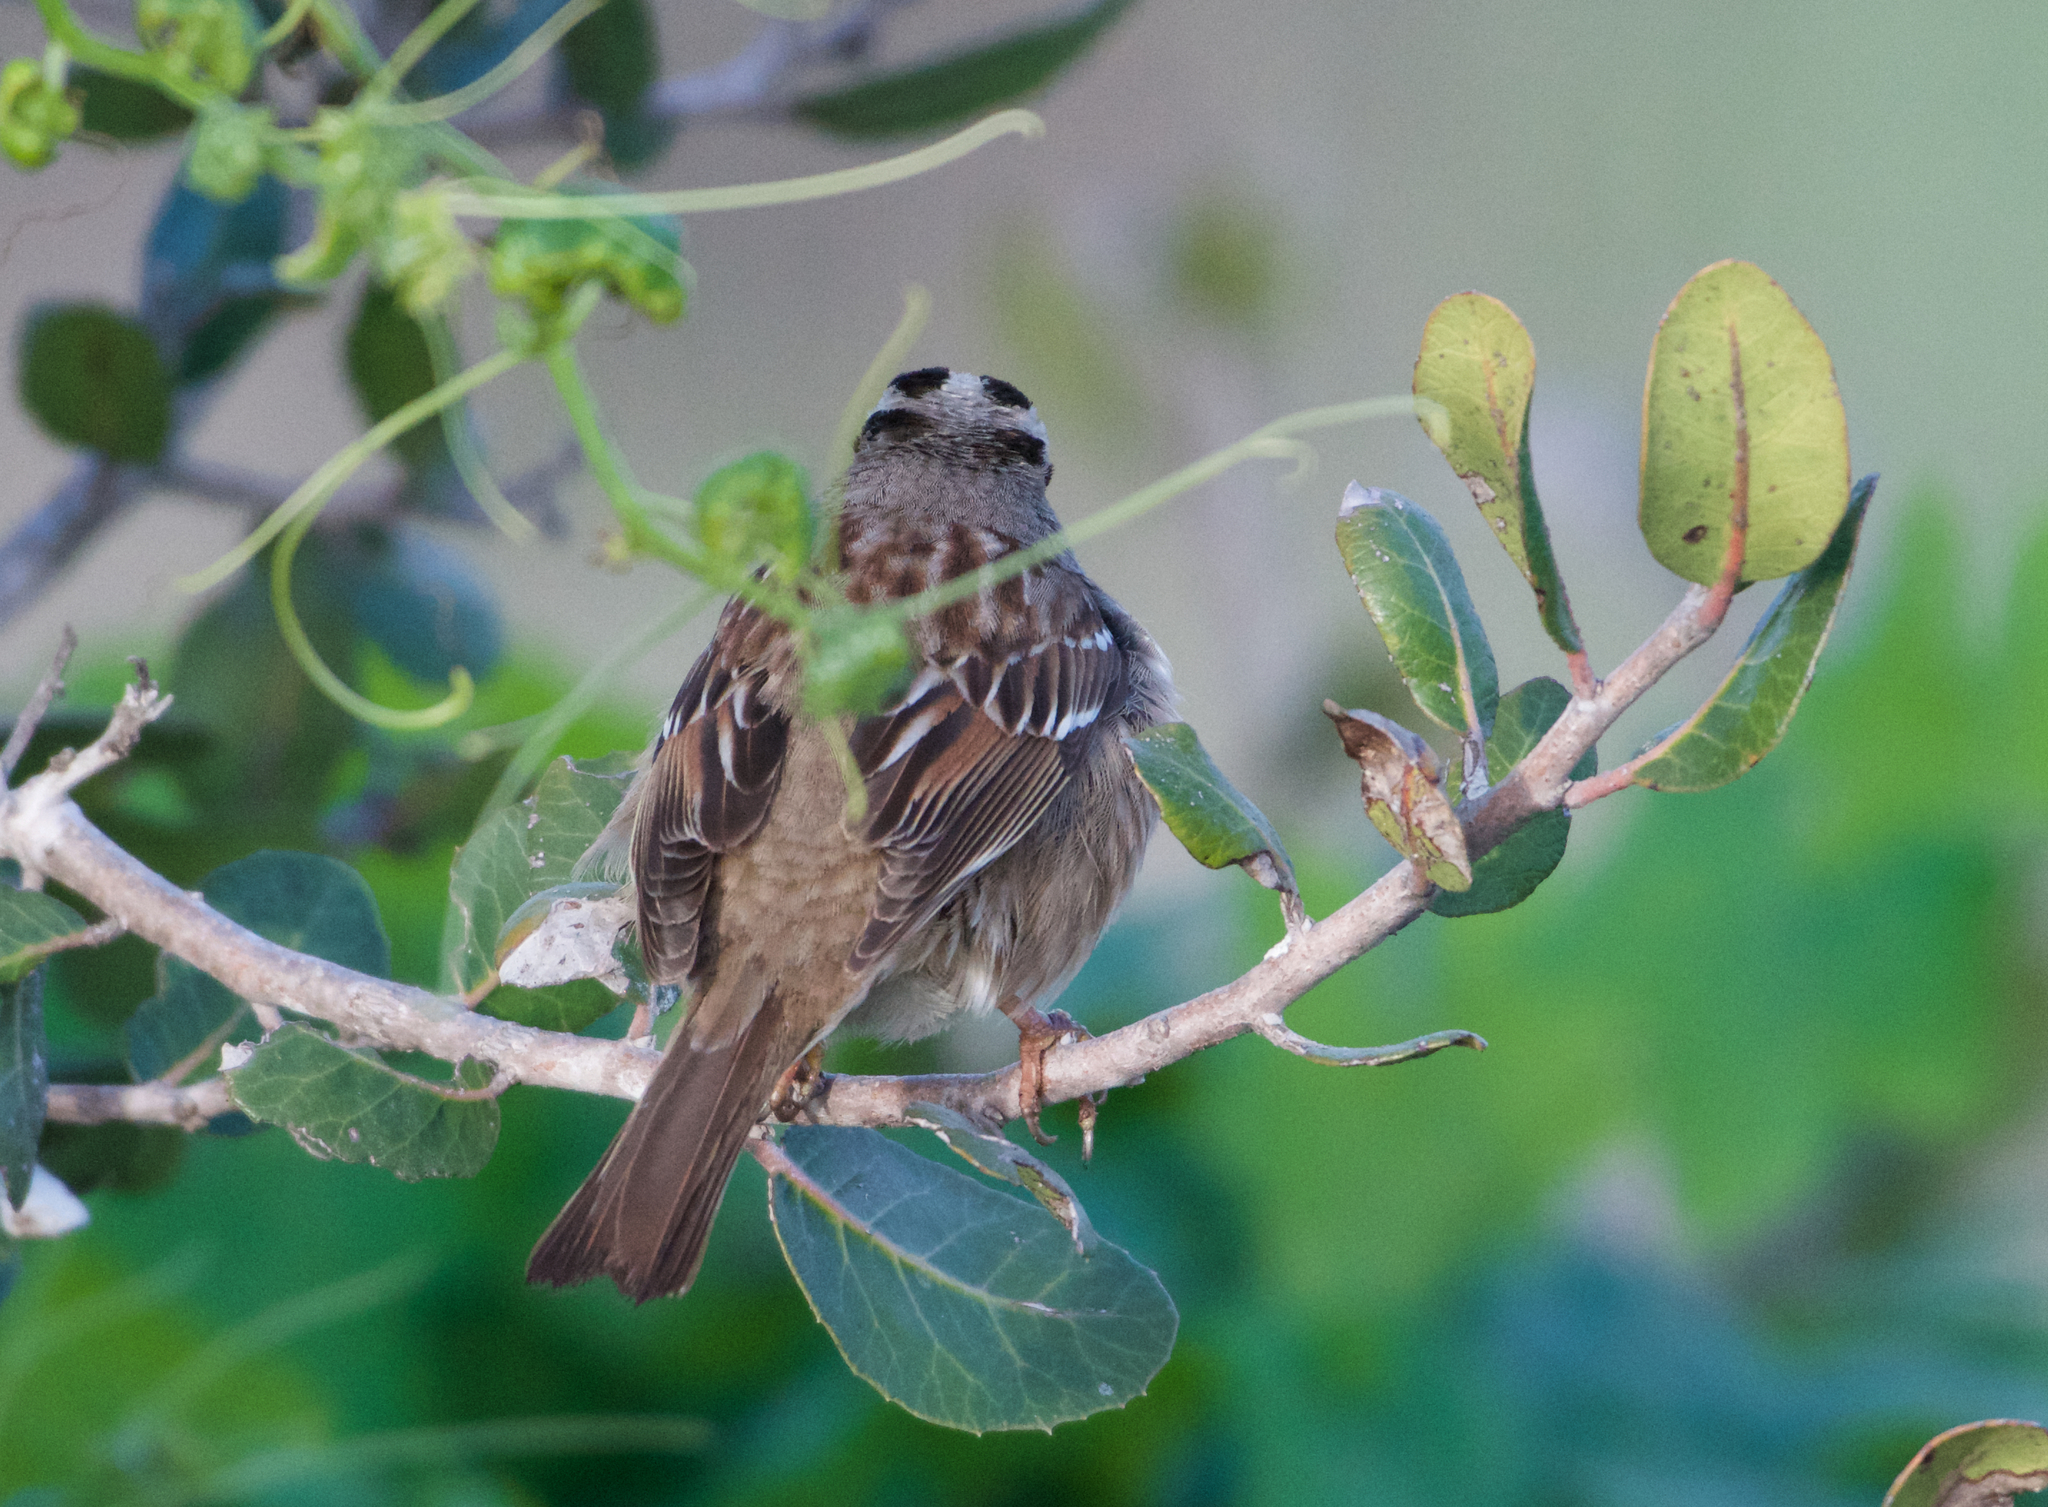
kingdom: Animalia
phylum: Chordata
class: Aves
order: Passeriformes
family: Passerellidae
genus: Zonotrichia
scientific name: Zonotrichia leucophrys
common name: White-crowned sparrow
